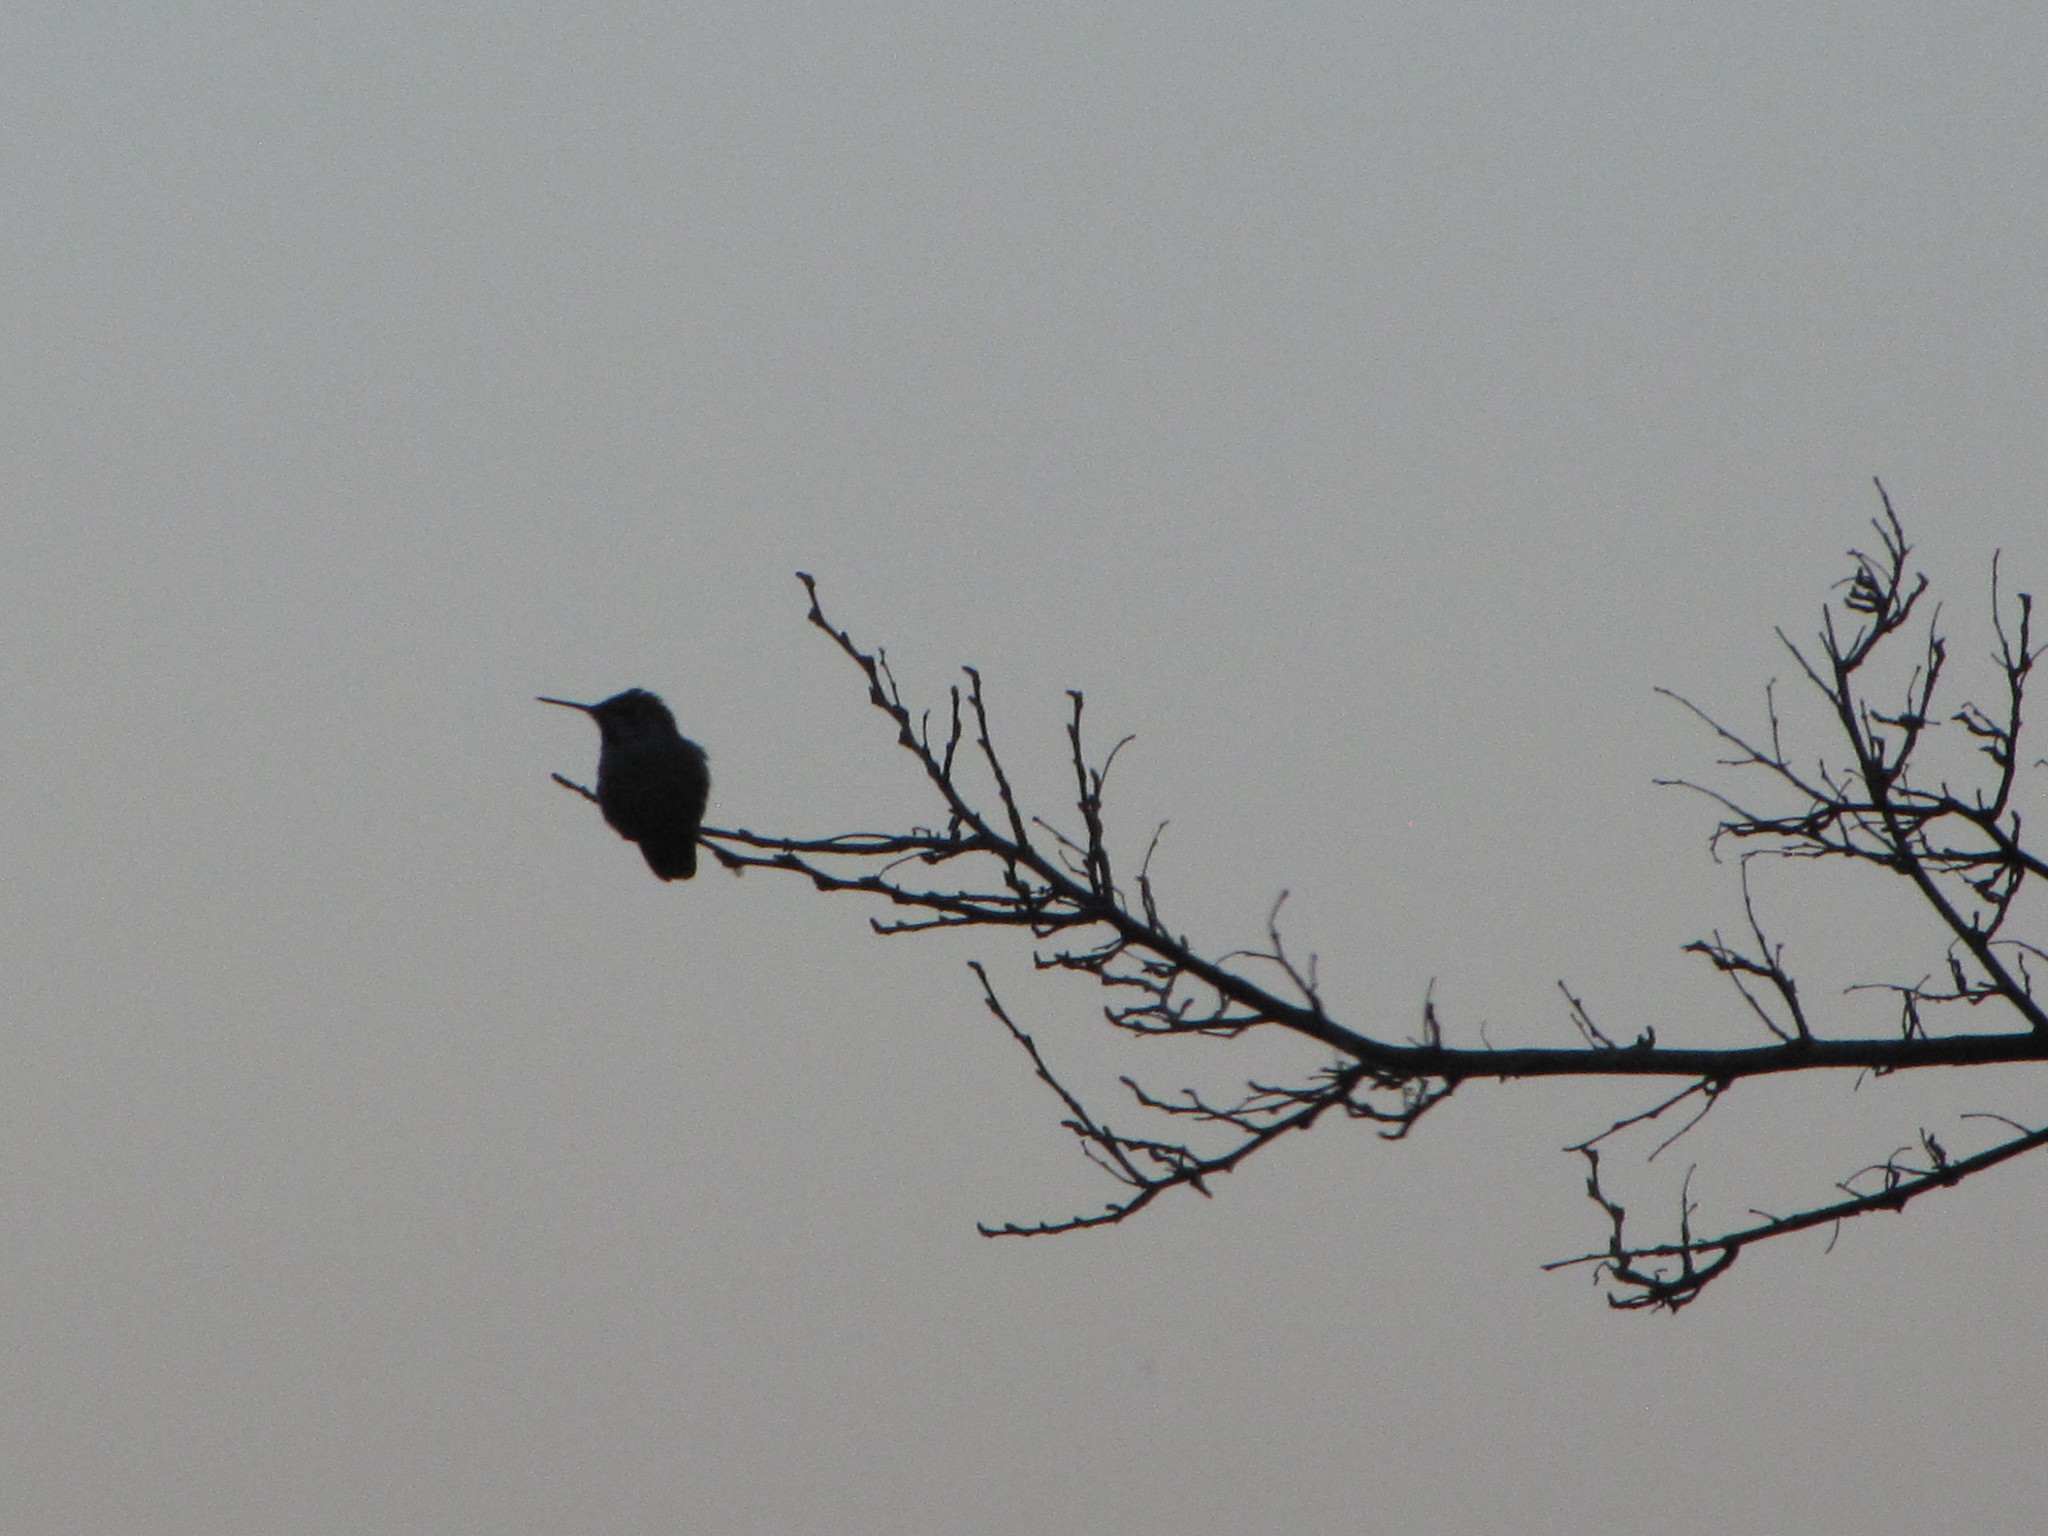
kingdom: Animalia
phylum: Chordata
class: Aves
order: Apodiformes
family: Trochilidae
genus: Calypte
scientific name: Calypte anna
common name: Anna's hummingbird
